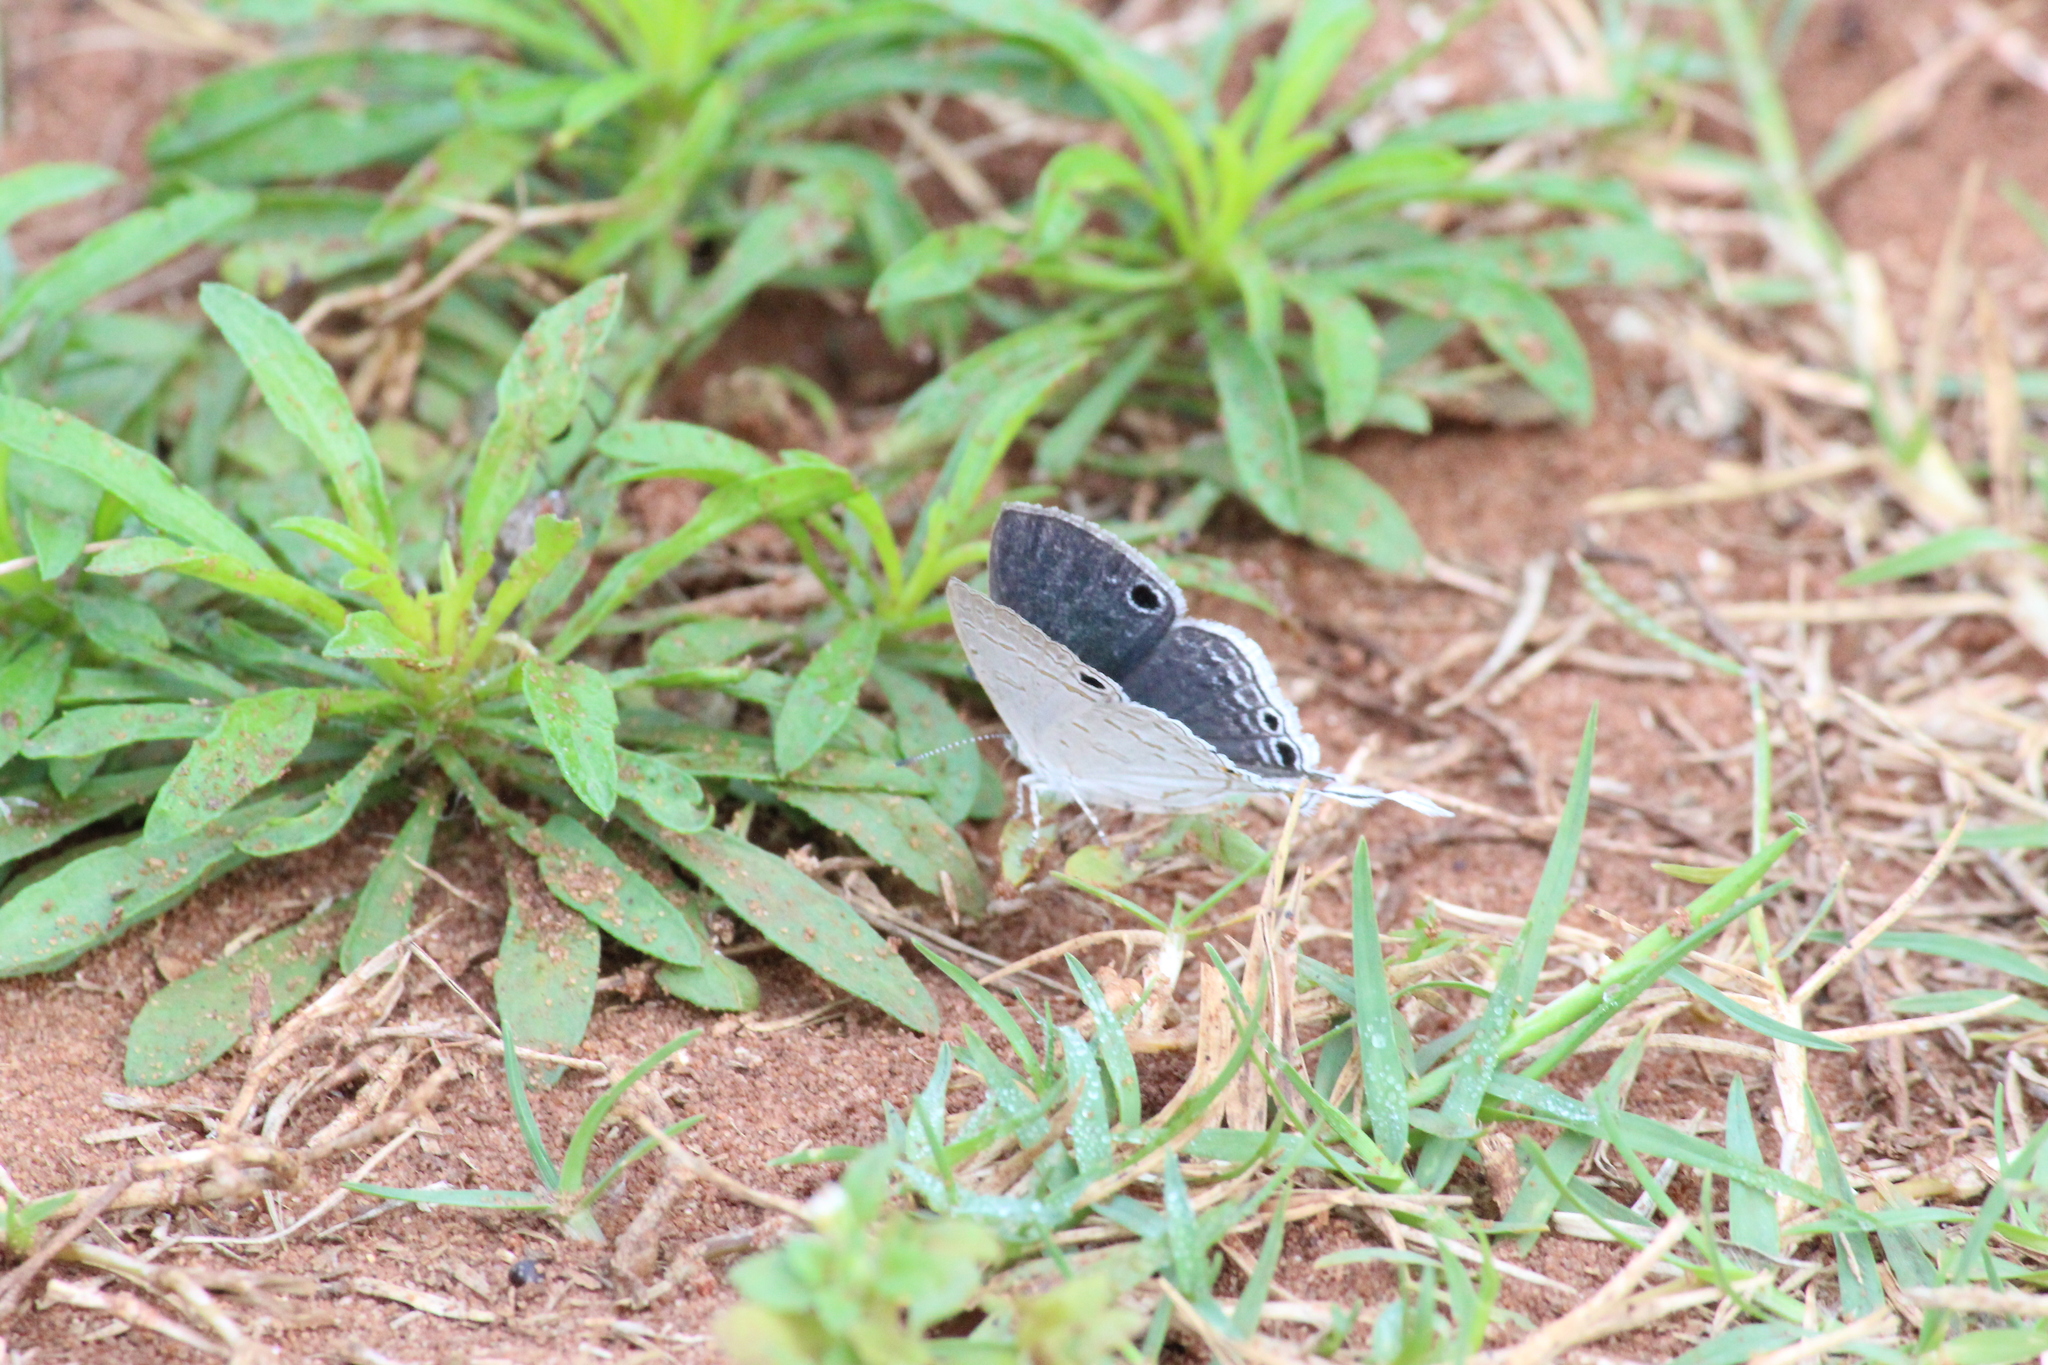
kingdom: Animalia
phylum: Arthropoda
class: Insecta
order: Lepidoptera
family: Lycaenidae
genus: Leptomyrina
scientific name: Leptomyrina hirundo
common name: Tailed black-eye
